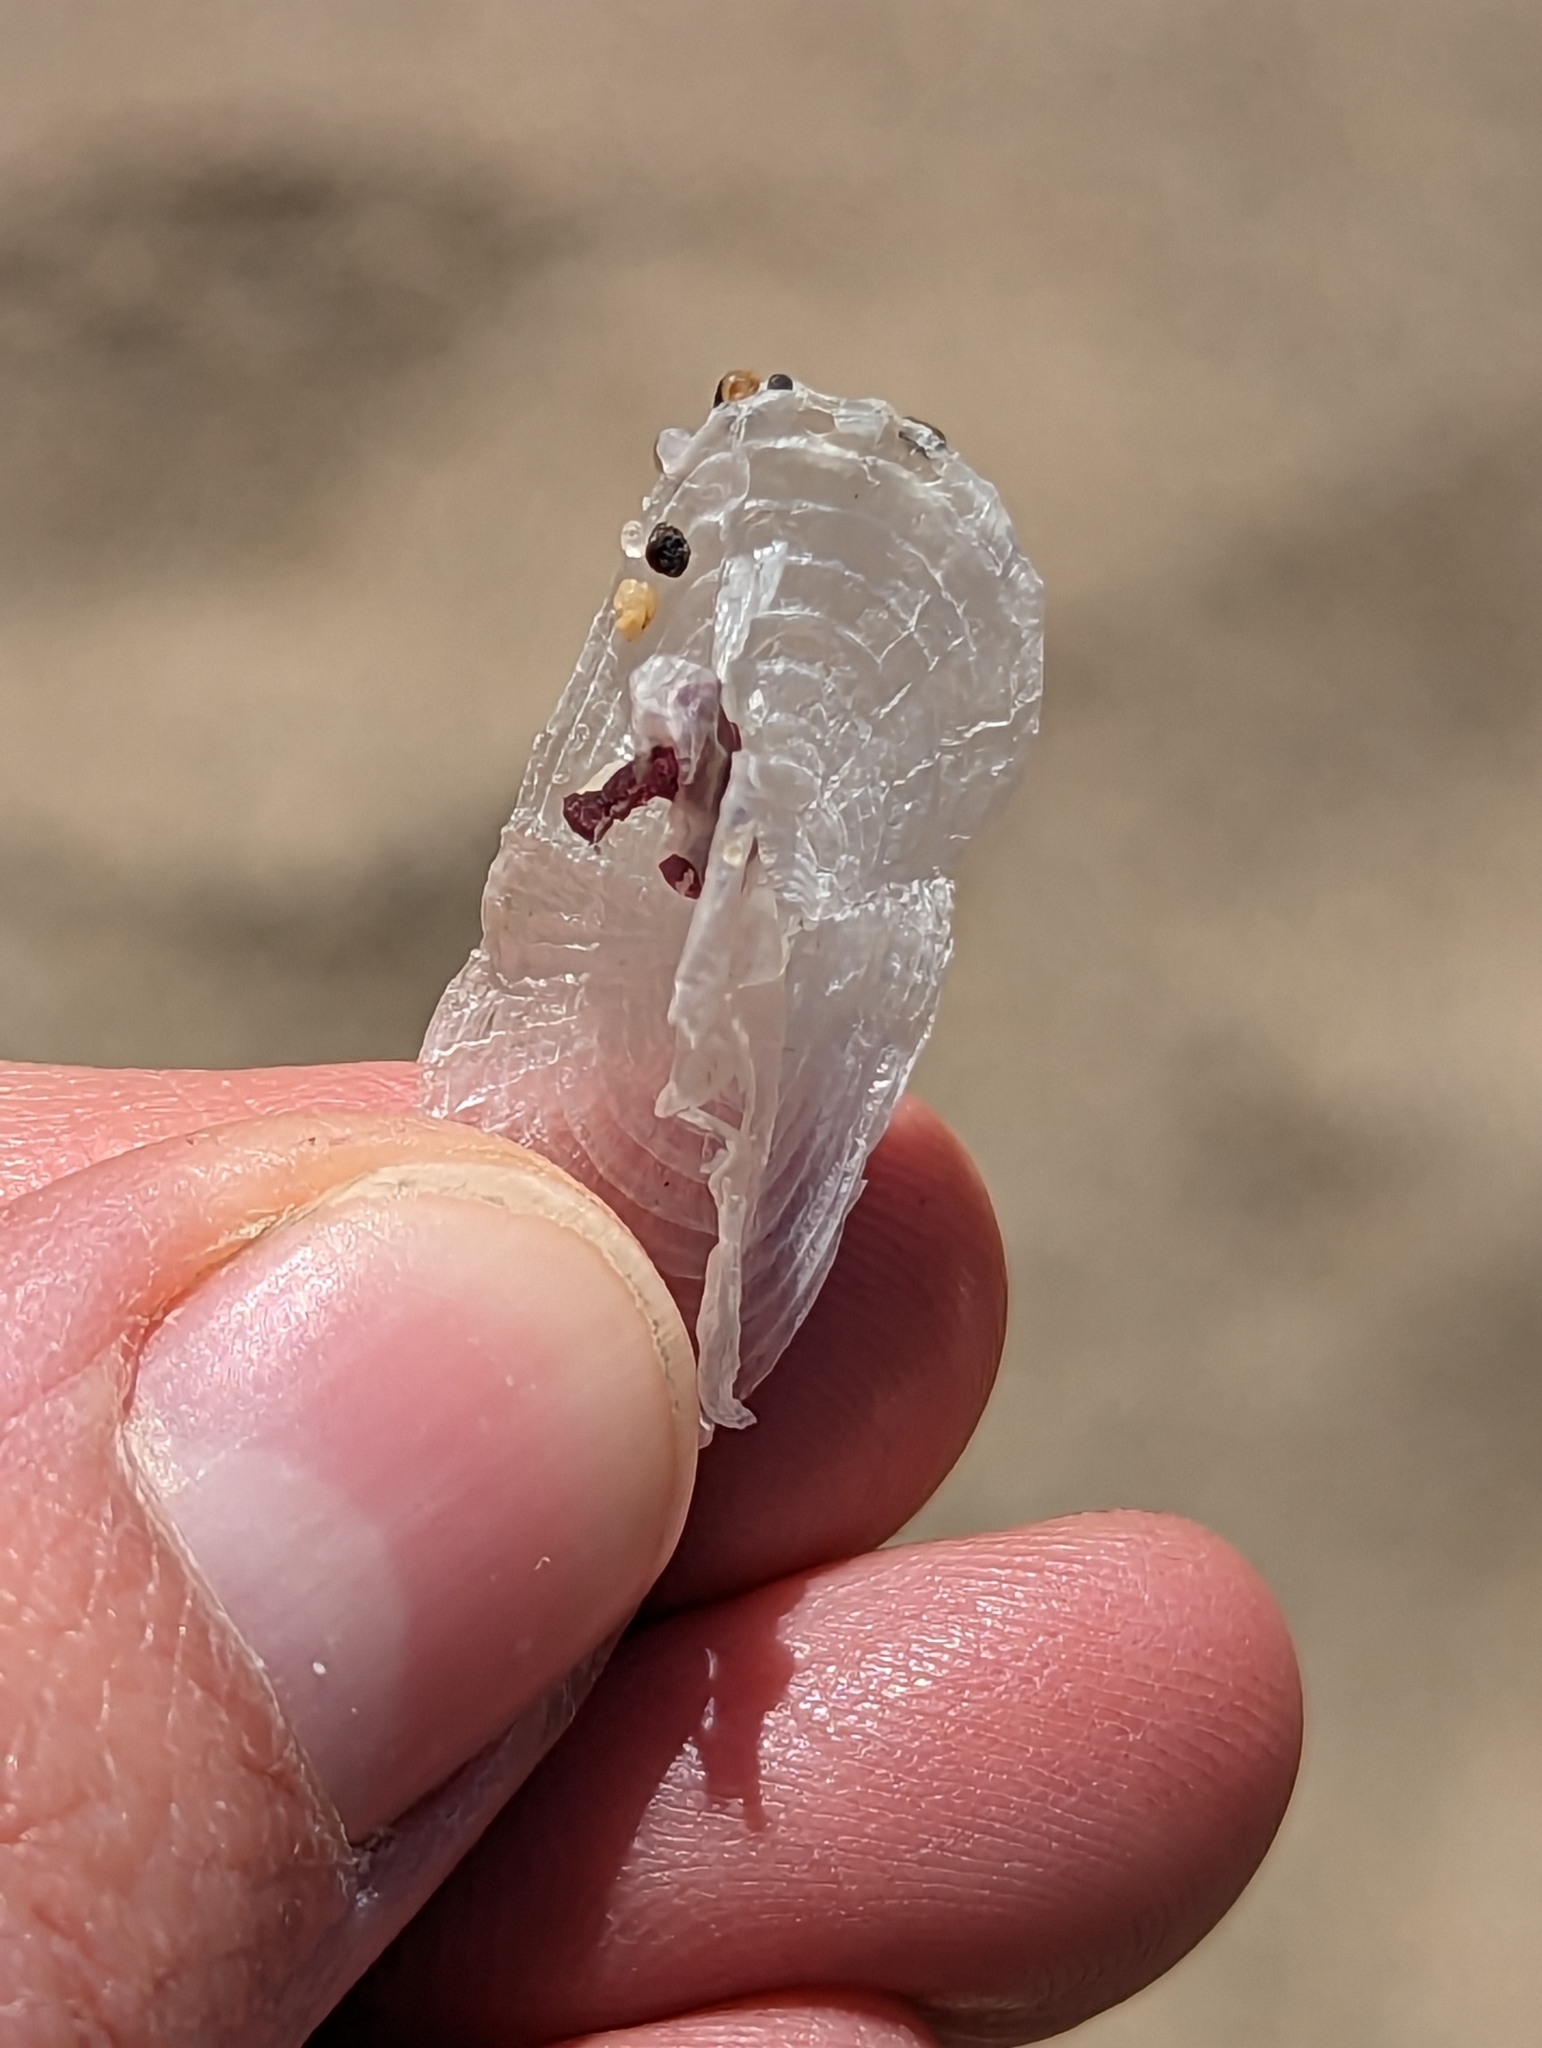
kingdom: Animalia
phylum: Cnidaria
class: Hydrozoa
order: Anthoathecata
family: Porpitidae
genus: Velella
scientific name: Velella velella
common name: By-the-wind-sailor
